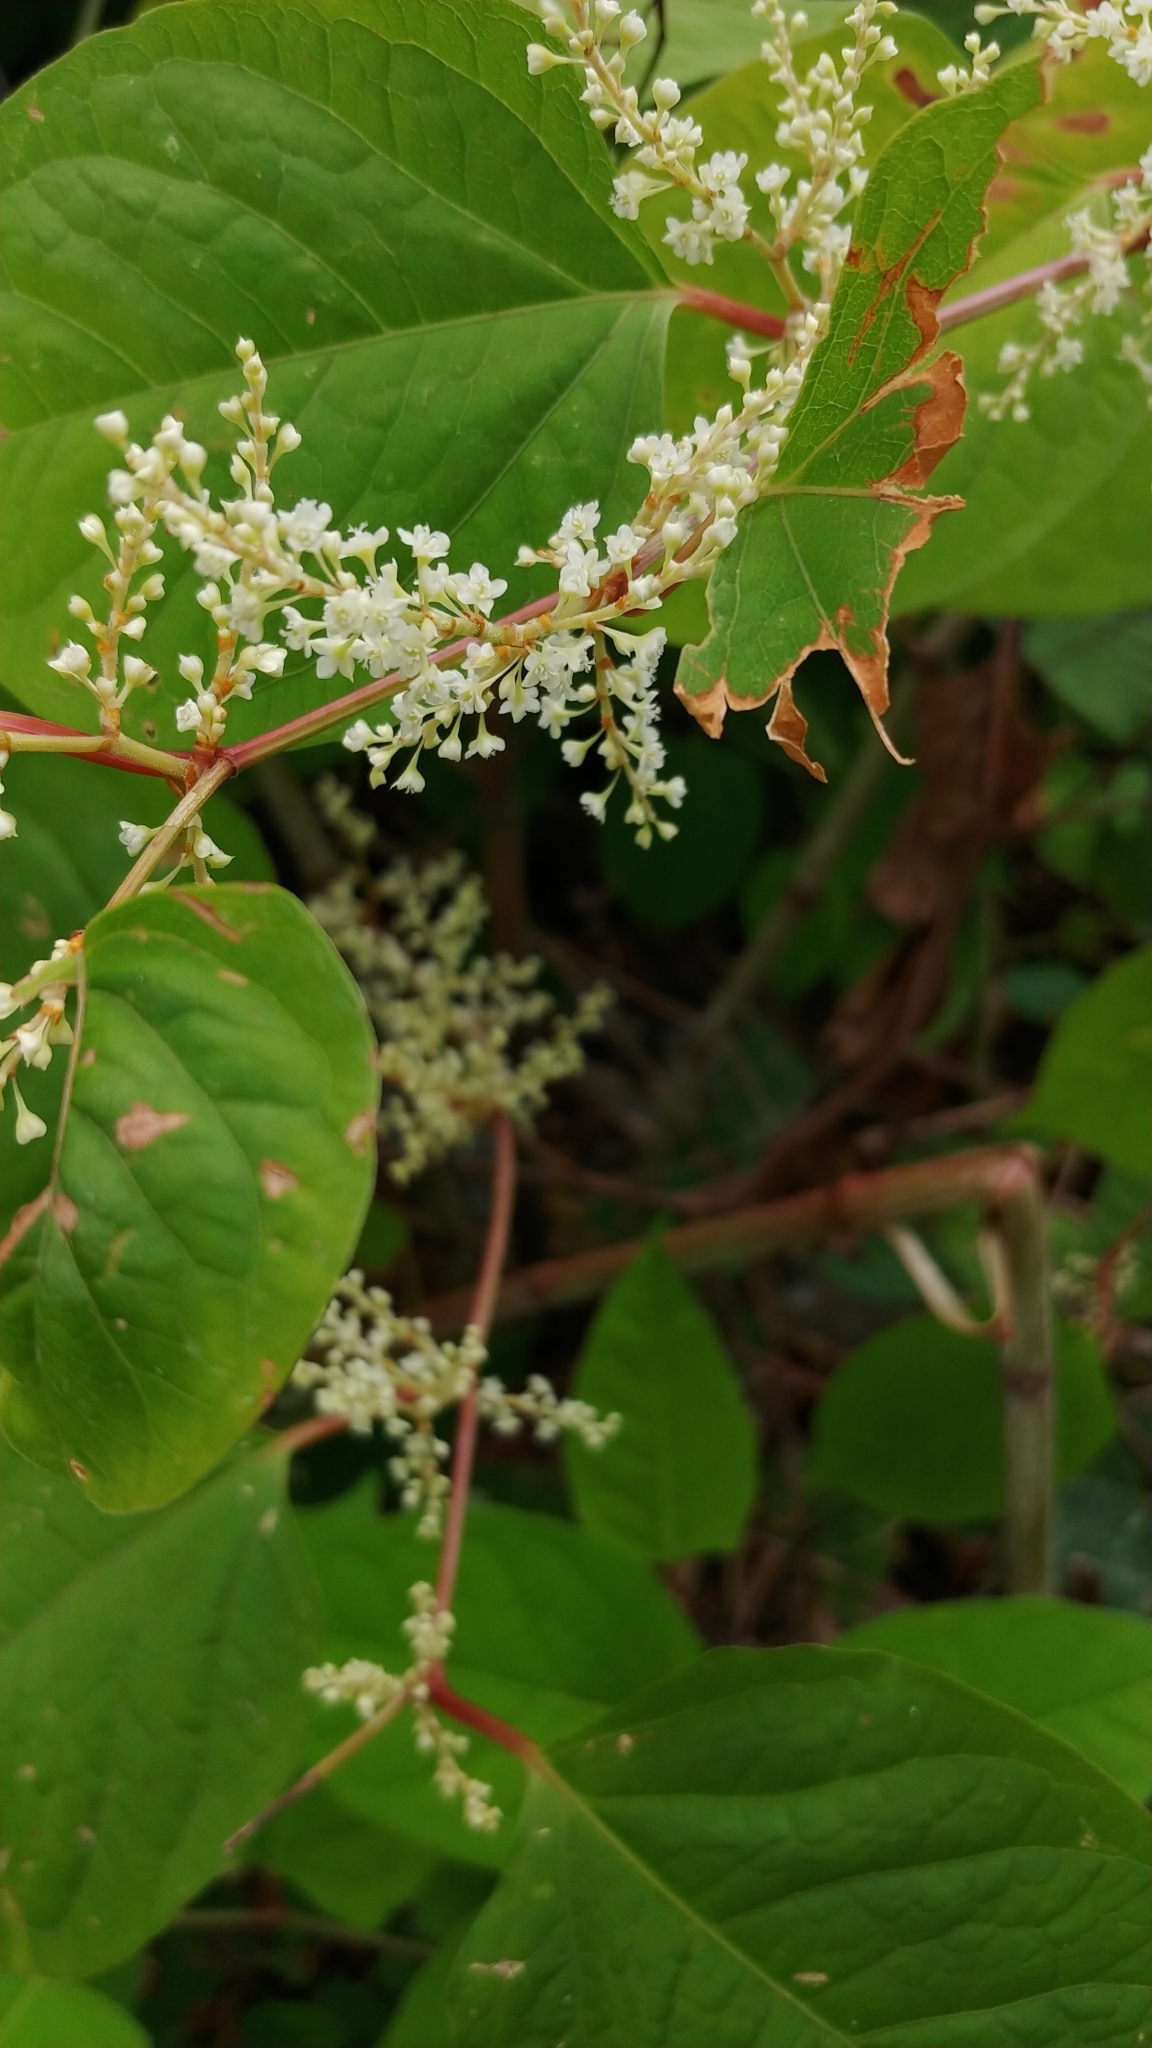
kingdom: Plantae
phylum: Tracheophyta
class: Magnoliopsida
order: Caryophyllales
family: Polygonaceae
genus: Reynoutria
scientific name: Reynoutria japonica
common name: Japanese knotweed
